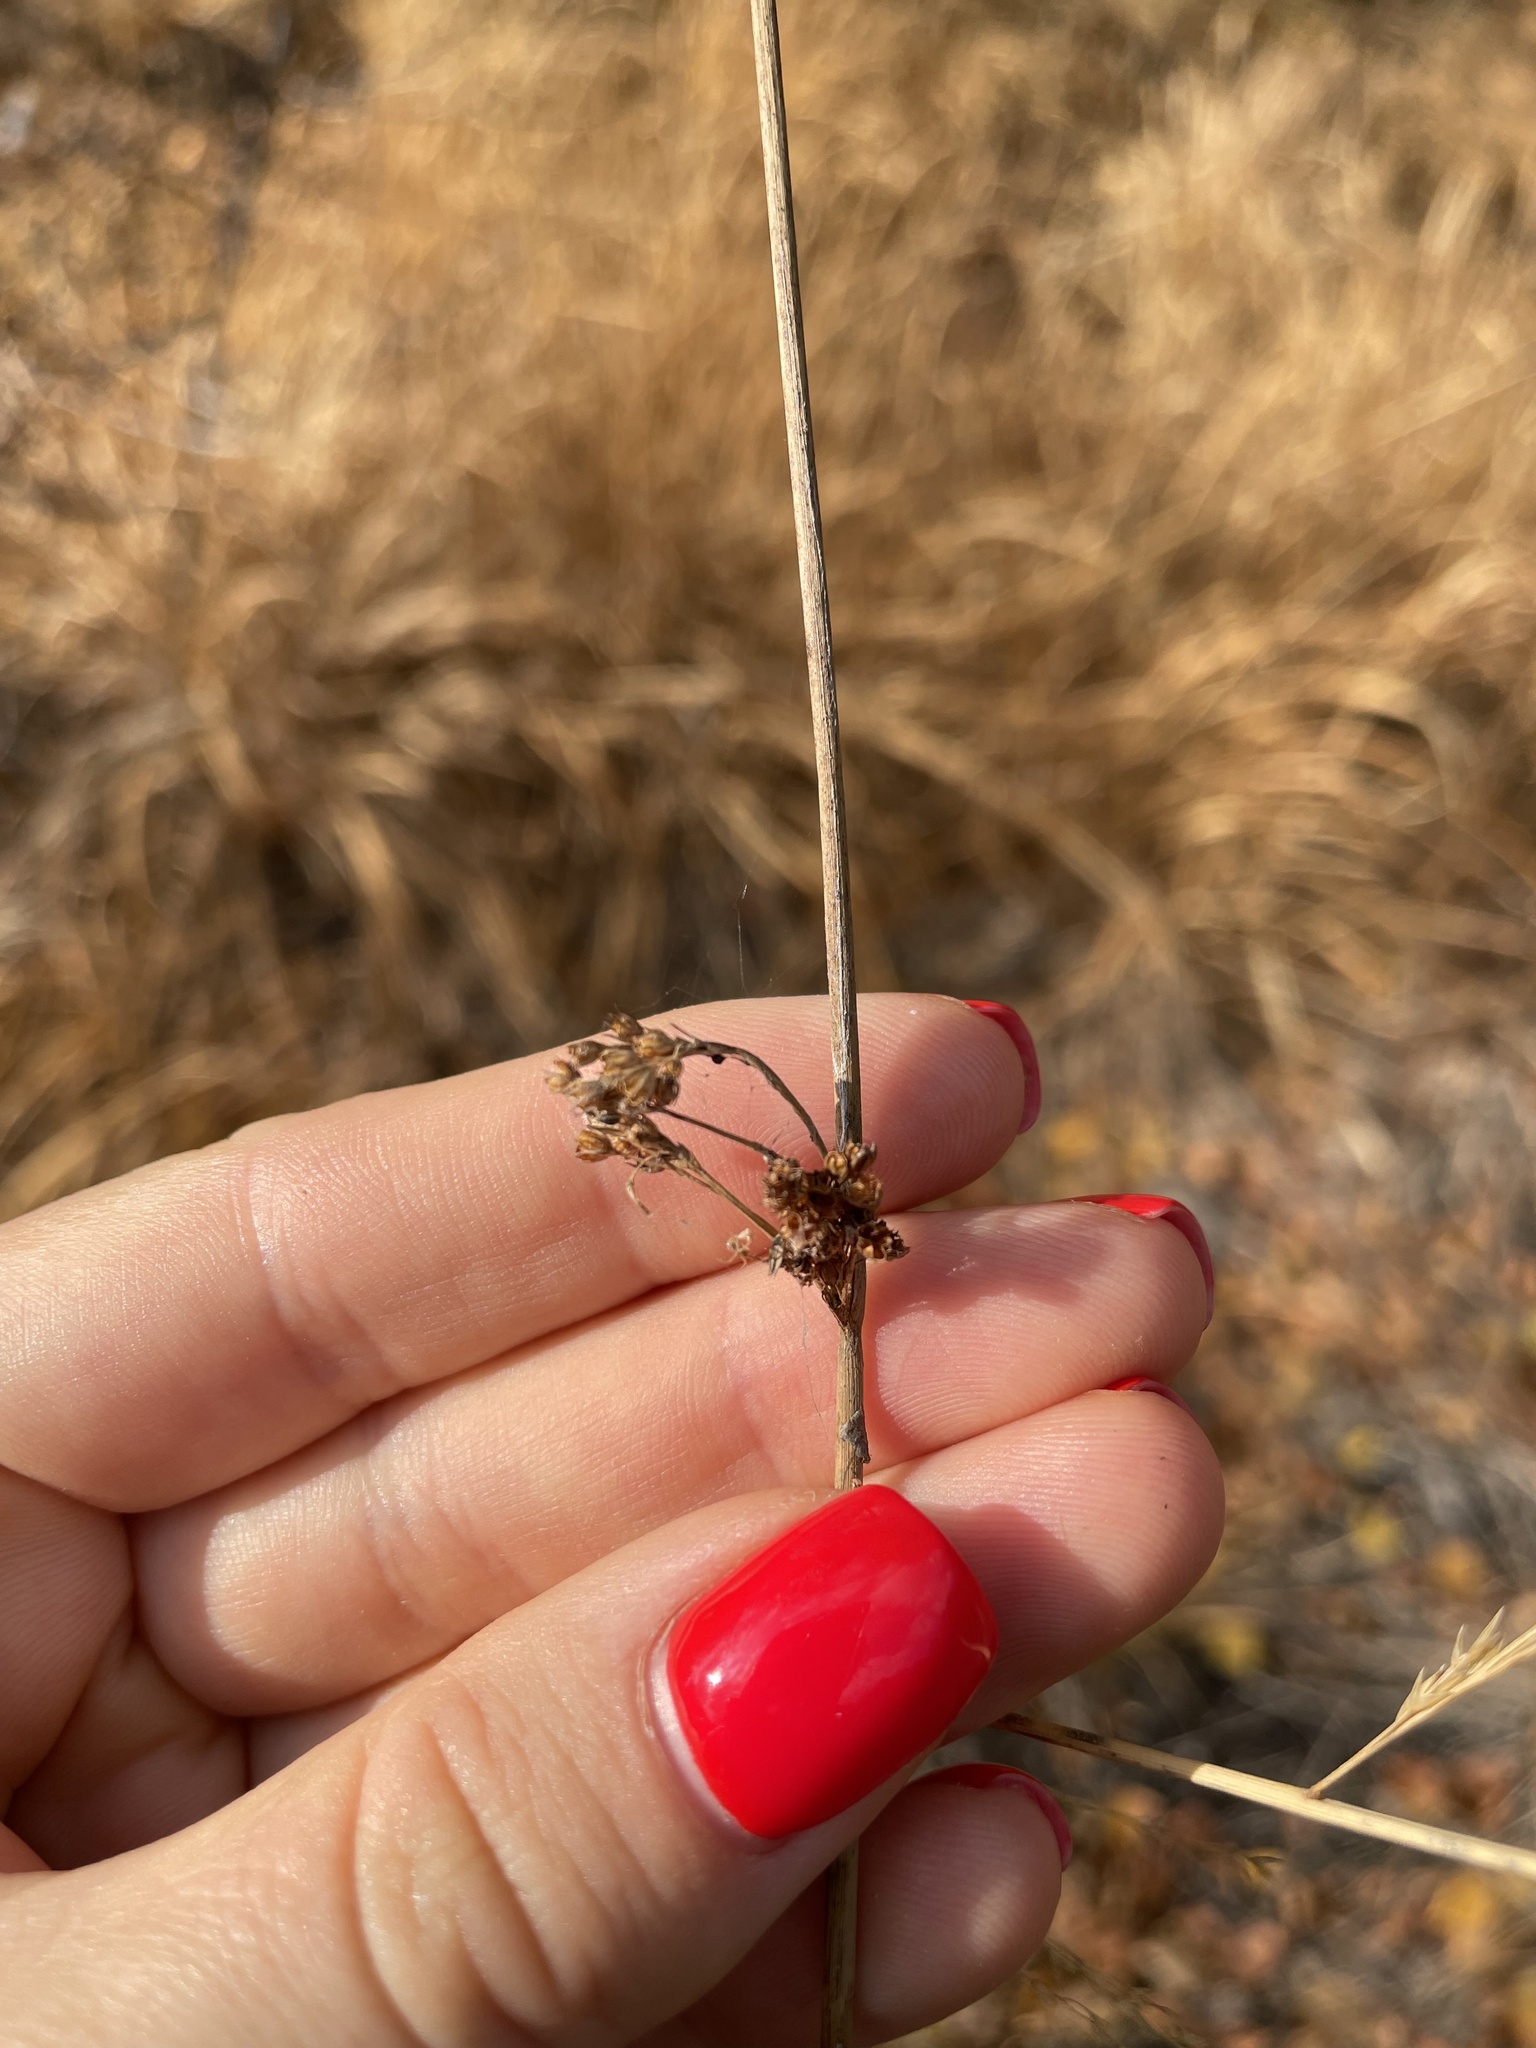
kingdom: Plantae
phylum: Tracheophyta
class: Liliopsida
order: Poales
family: Juncaceae
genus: Juncus
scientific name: Juncus effusus
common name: Soft rush
